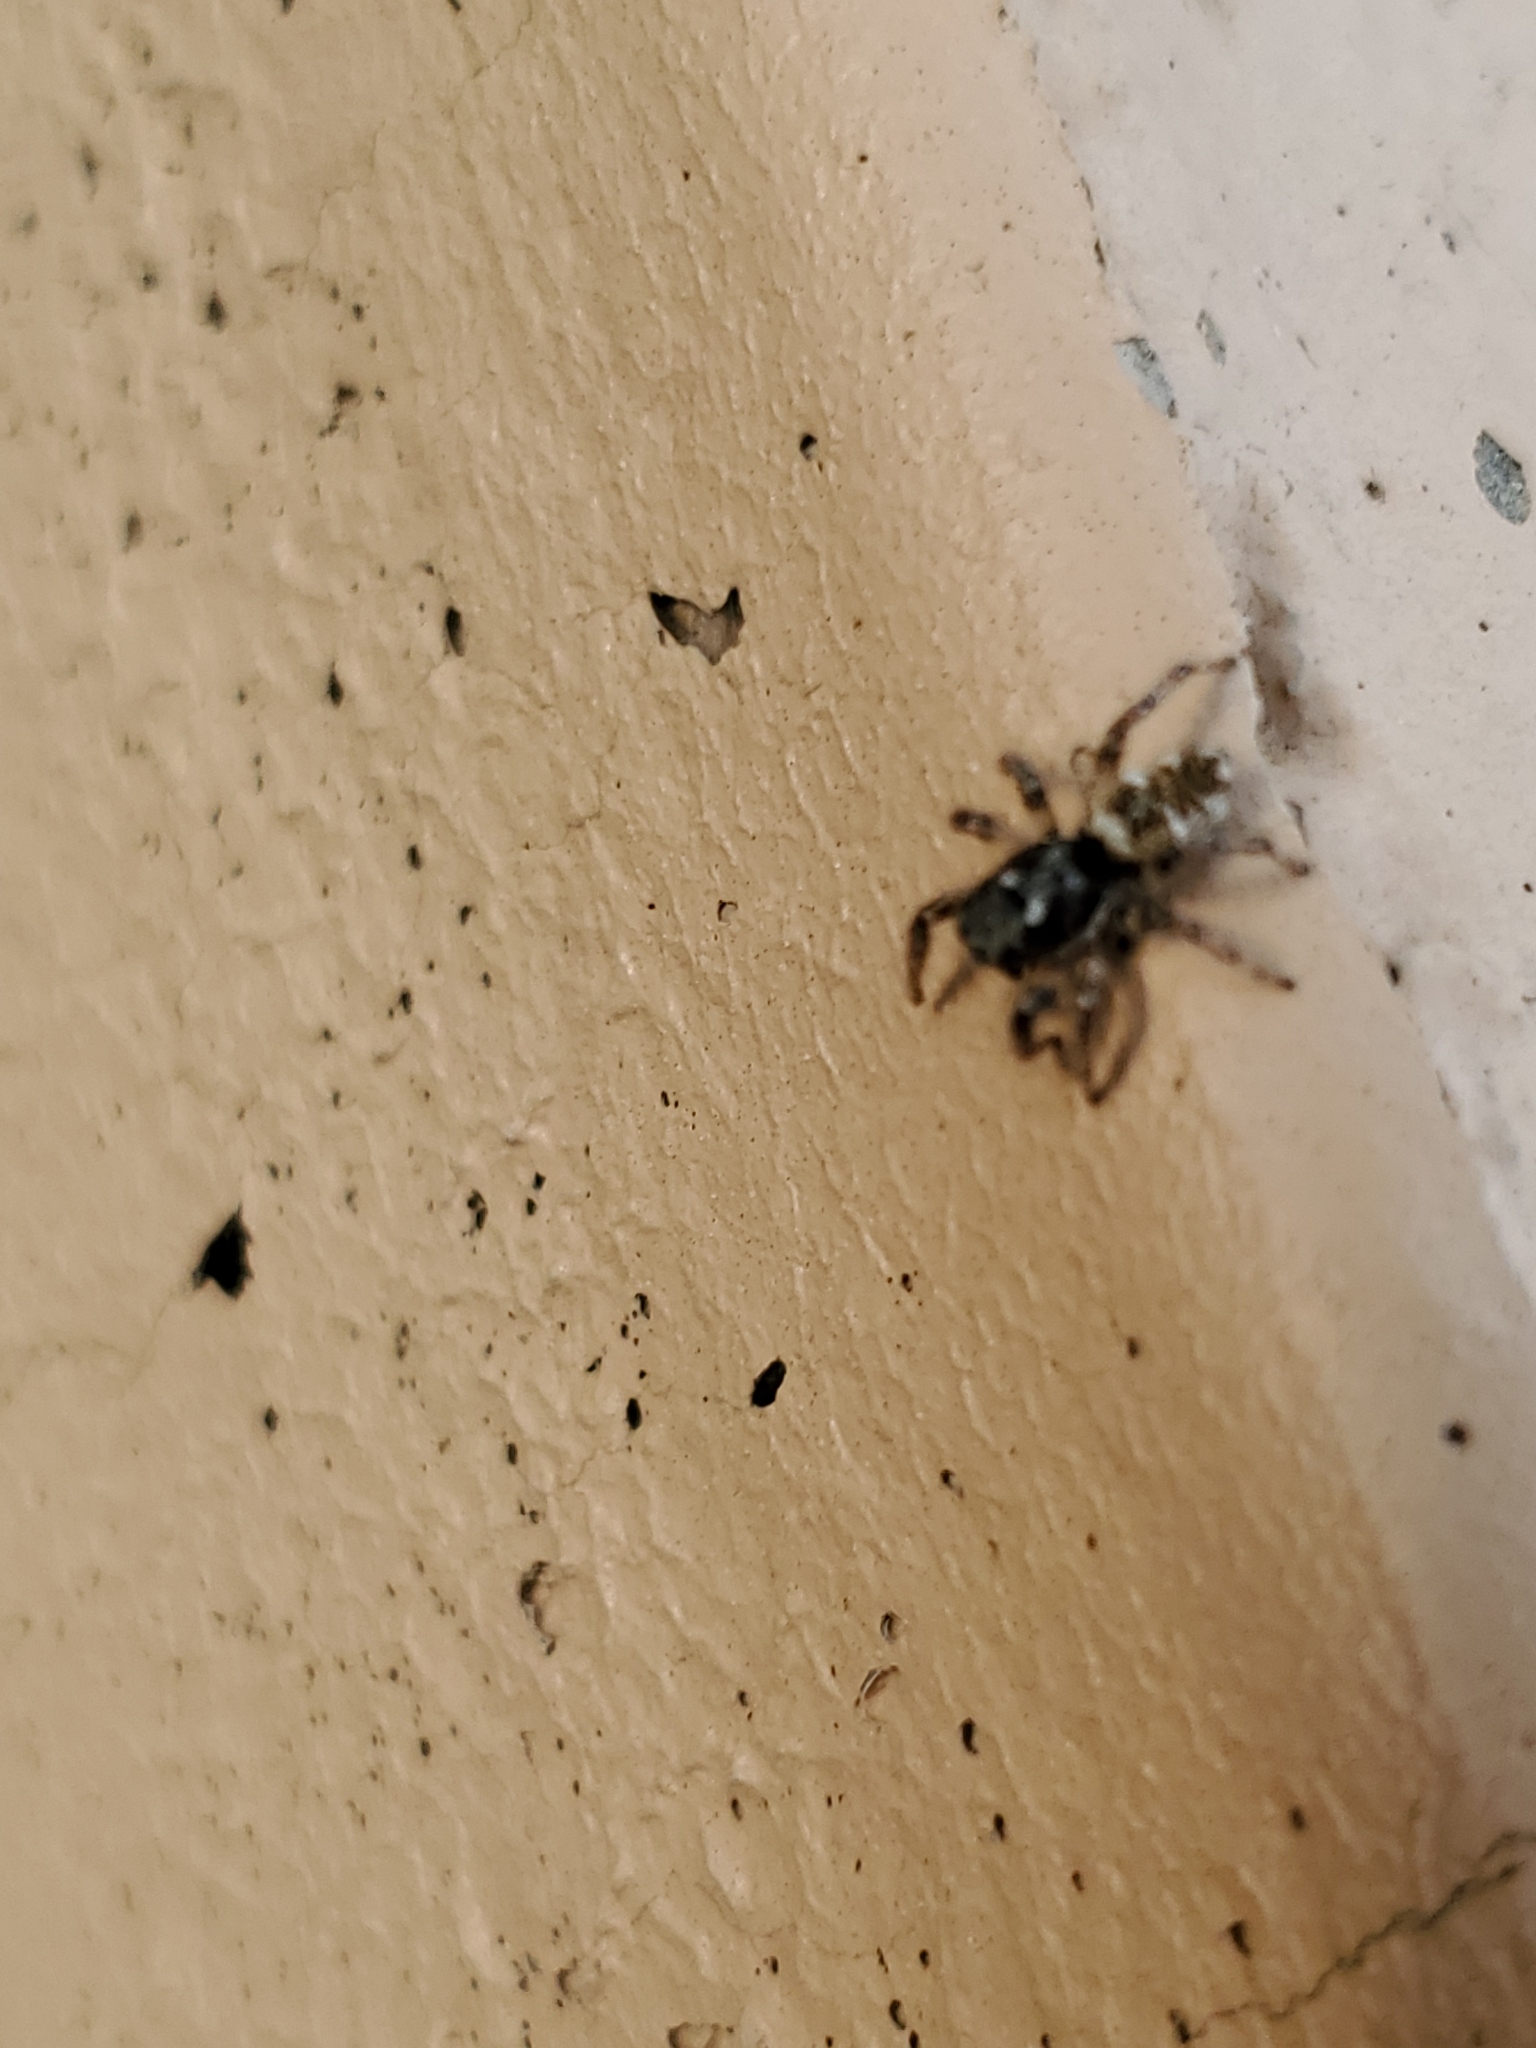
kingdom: Animalia
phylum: Arthropoda
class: Arachnida
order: Araneae
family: Salticidae
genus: Salticus
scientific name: Salticus scenicus
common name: Zebra jumper
